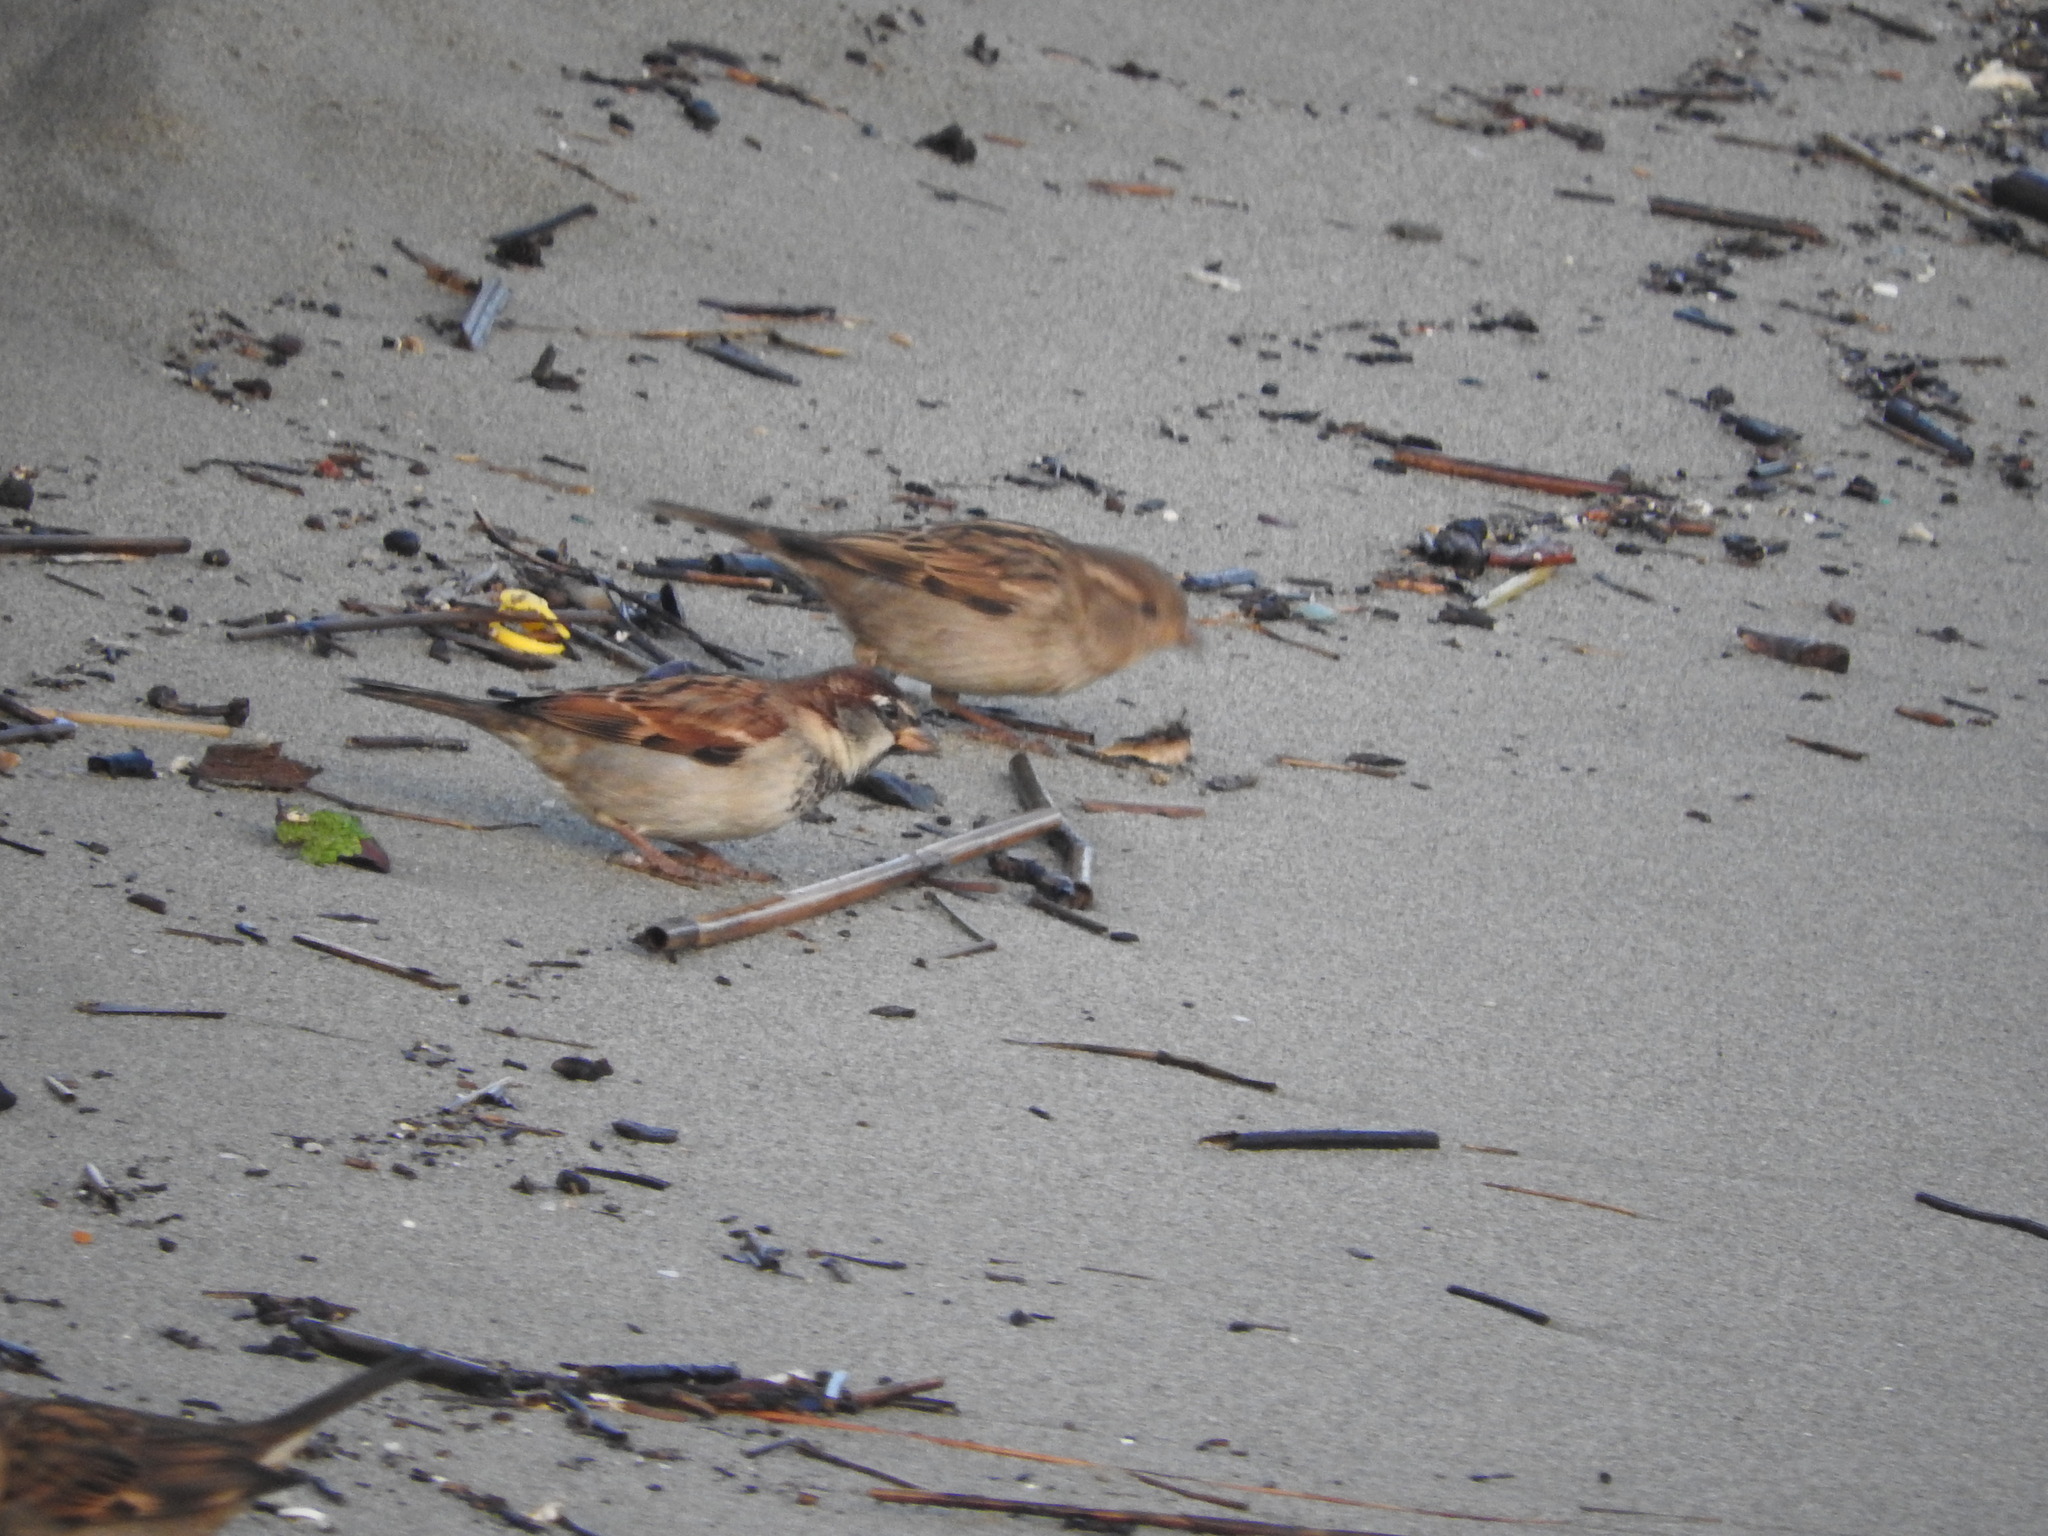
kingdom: Animalia
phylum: Chordata
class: Aves
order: Passeriformes
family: Passeridae
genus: Passer
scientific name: Passer italiae
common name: Italian sparrow
